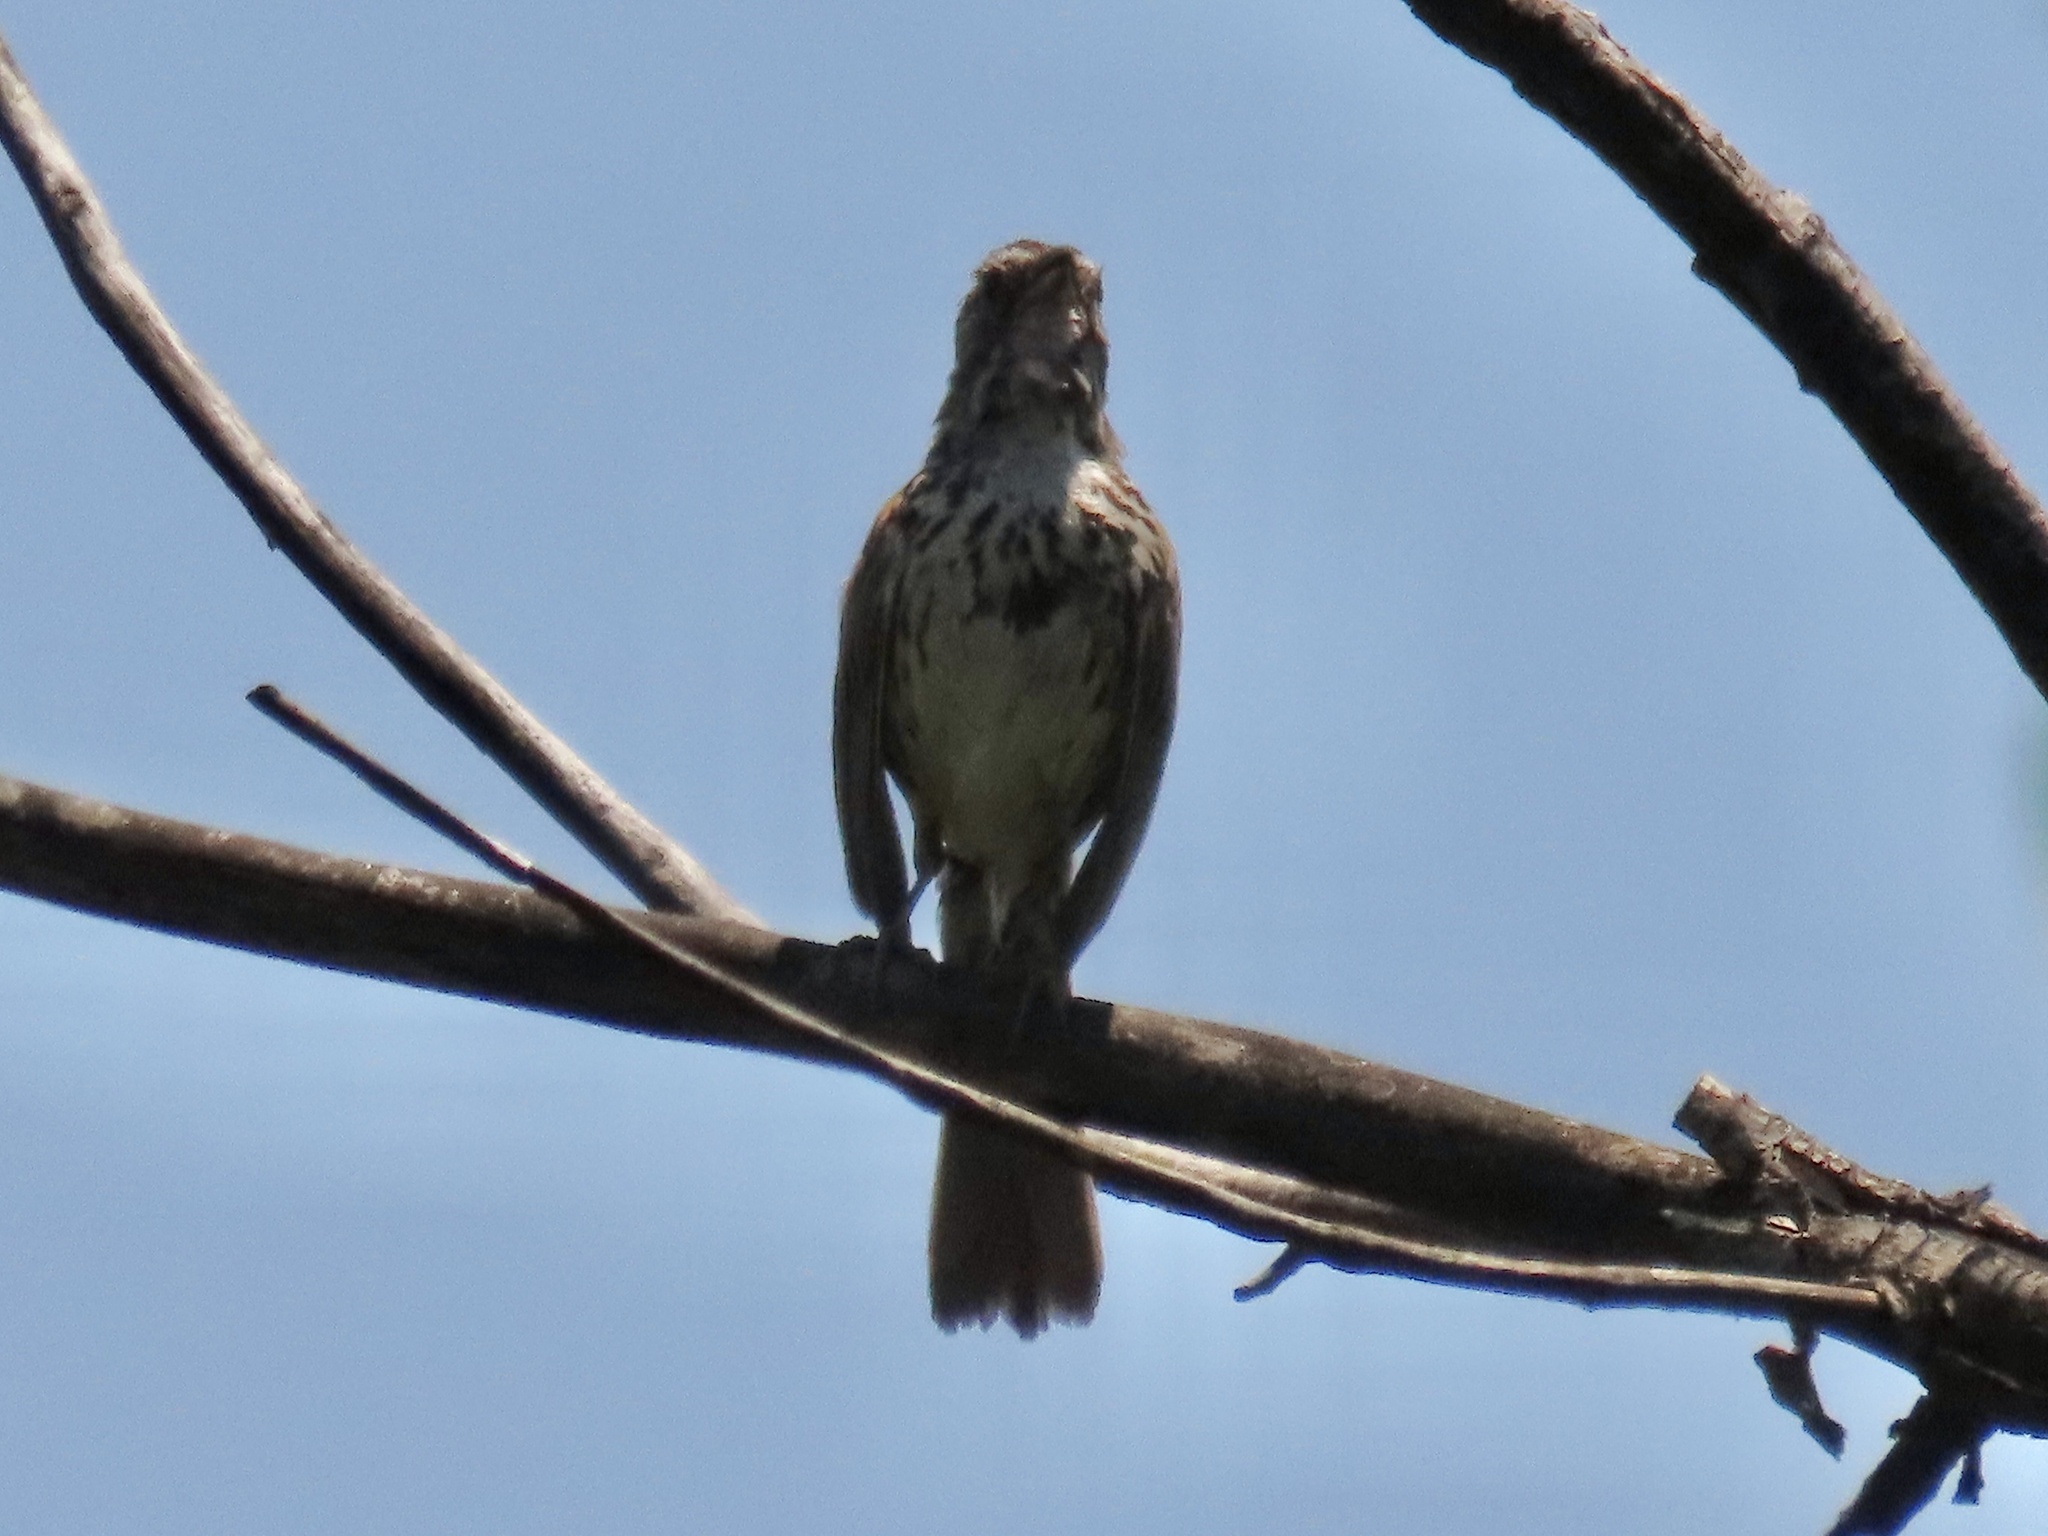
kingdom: Animalia
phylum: Chordata
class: Aves
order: Passeriformes
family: Passerellidae
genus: Melospiza
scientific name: Melospiza melodia
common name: Song sparrow
